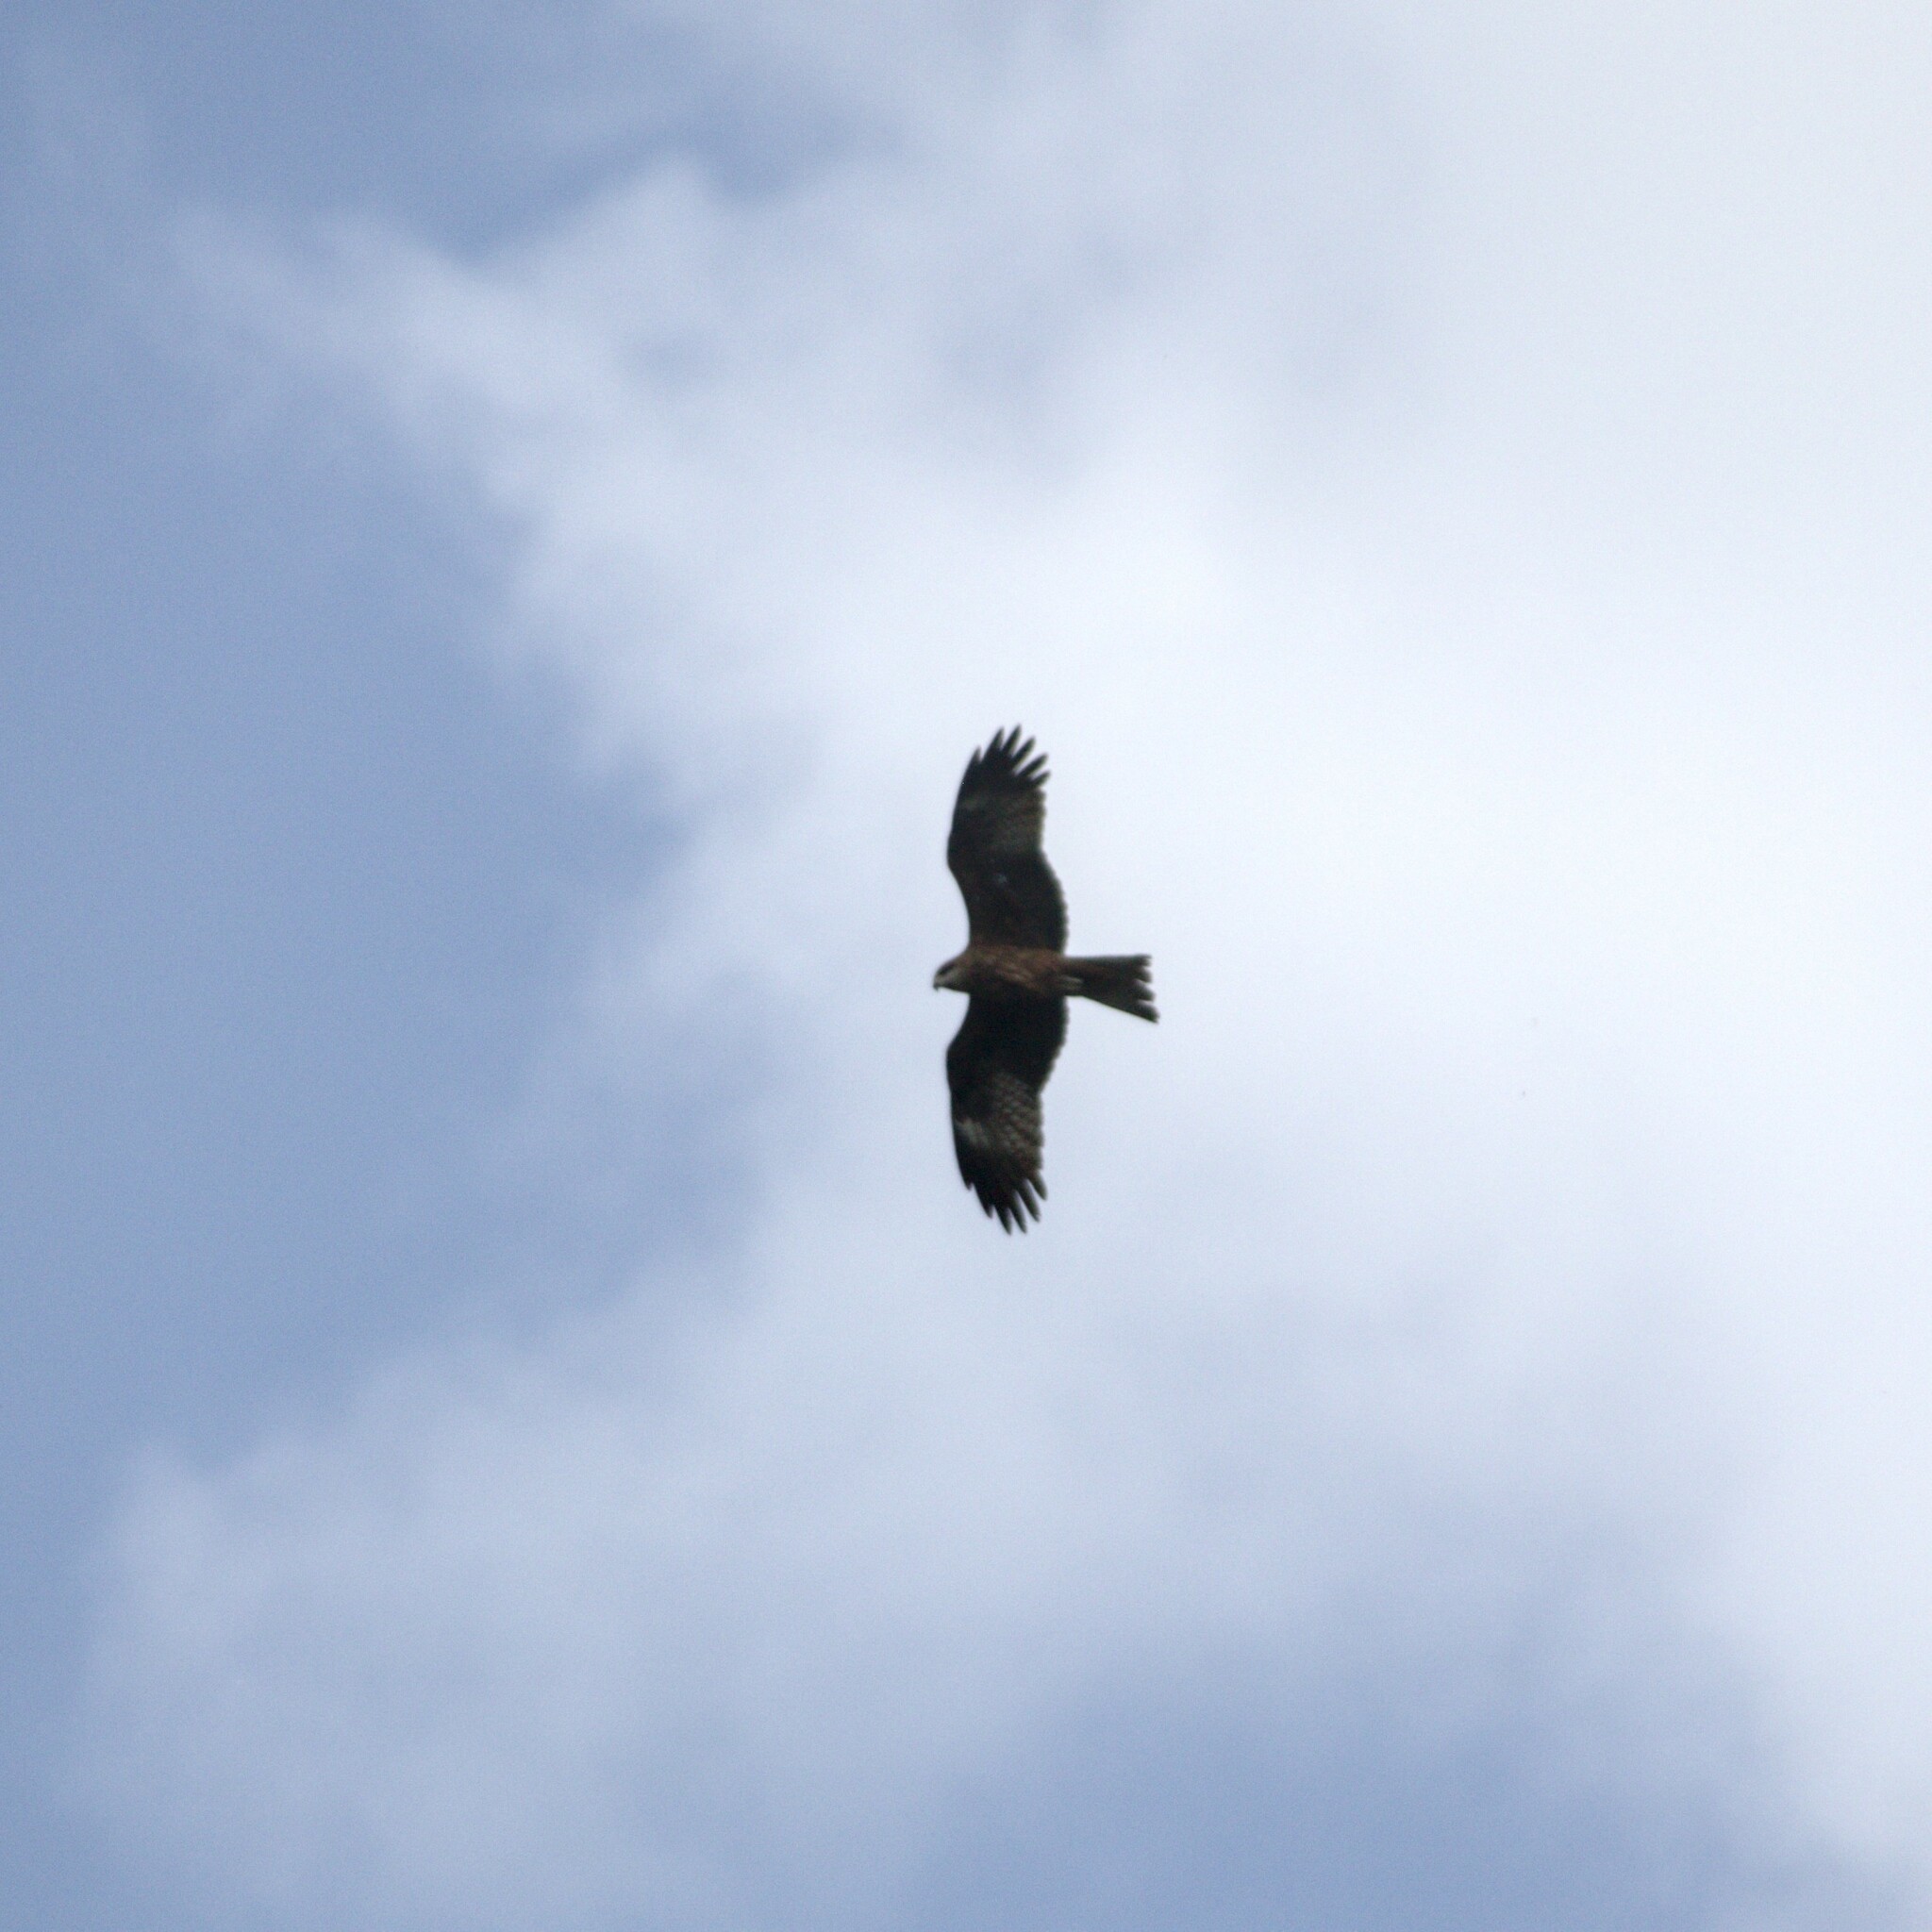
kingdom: Animalia
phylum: Chordata
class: Aves
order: Accipitriformes
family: Accipitridae
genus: Milvus
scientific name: Milvus migrans
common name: Black kite
